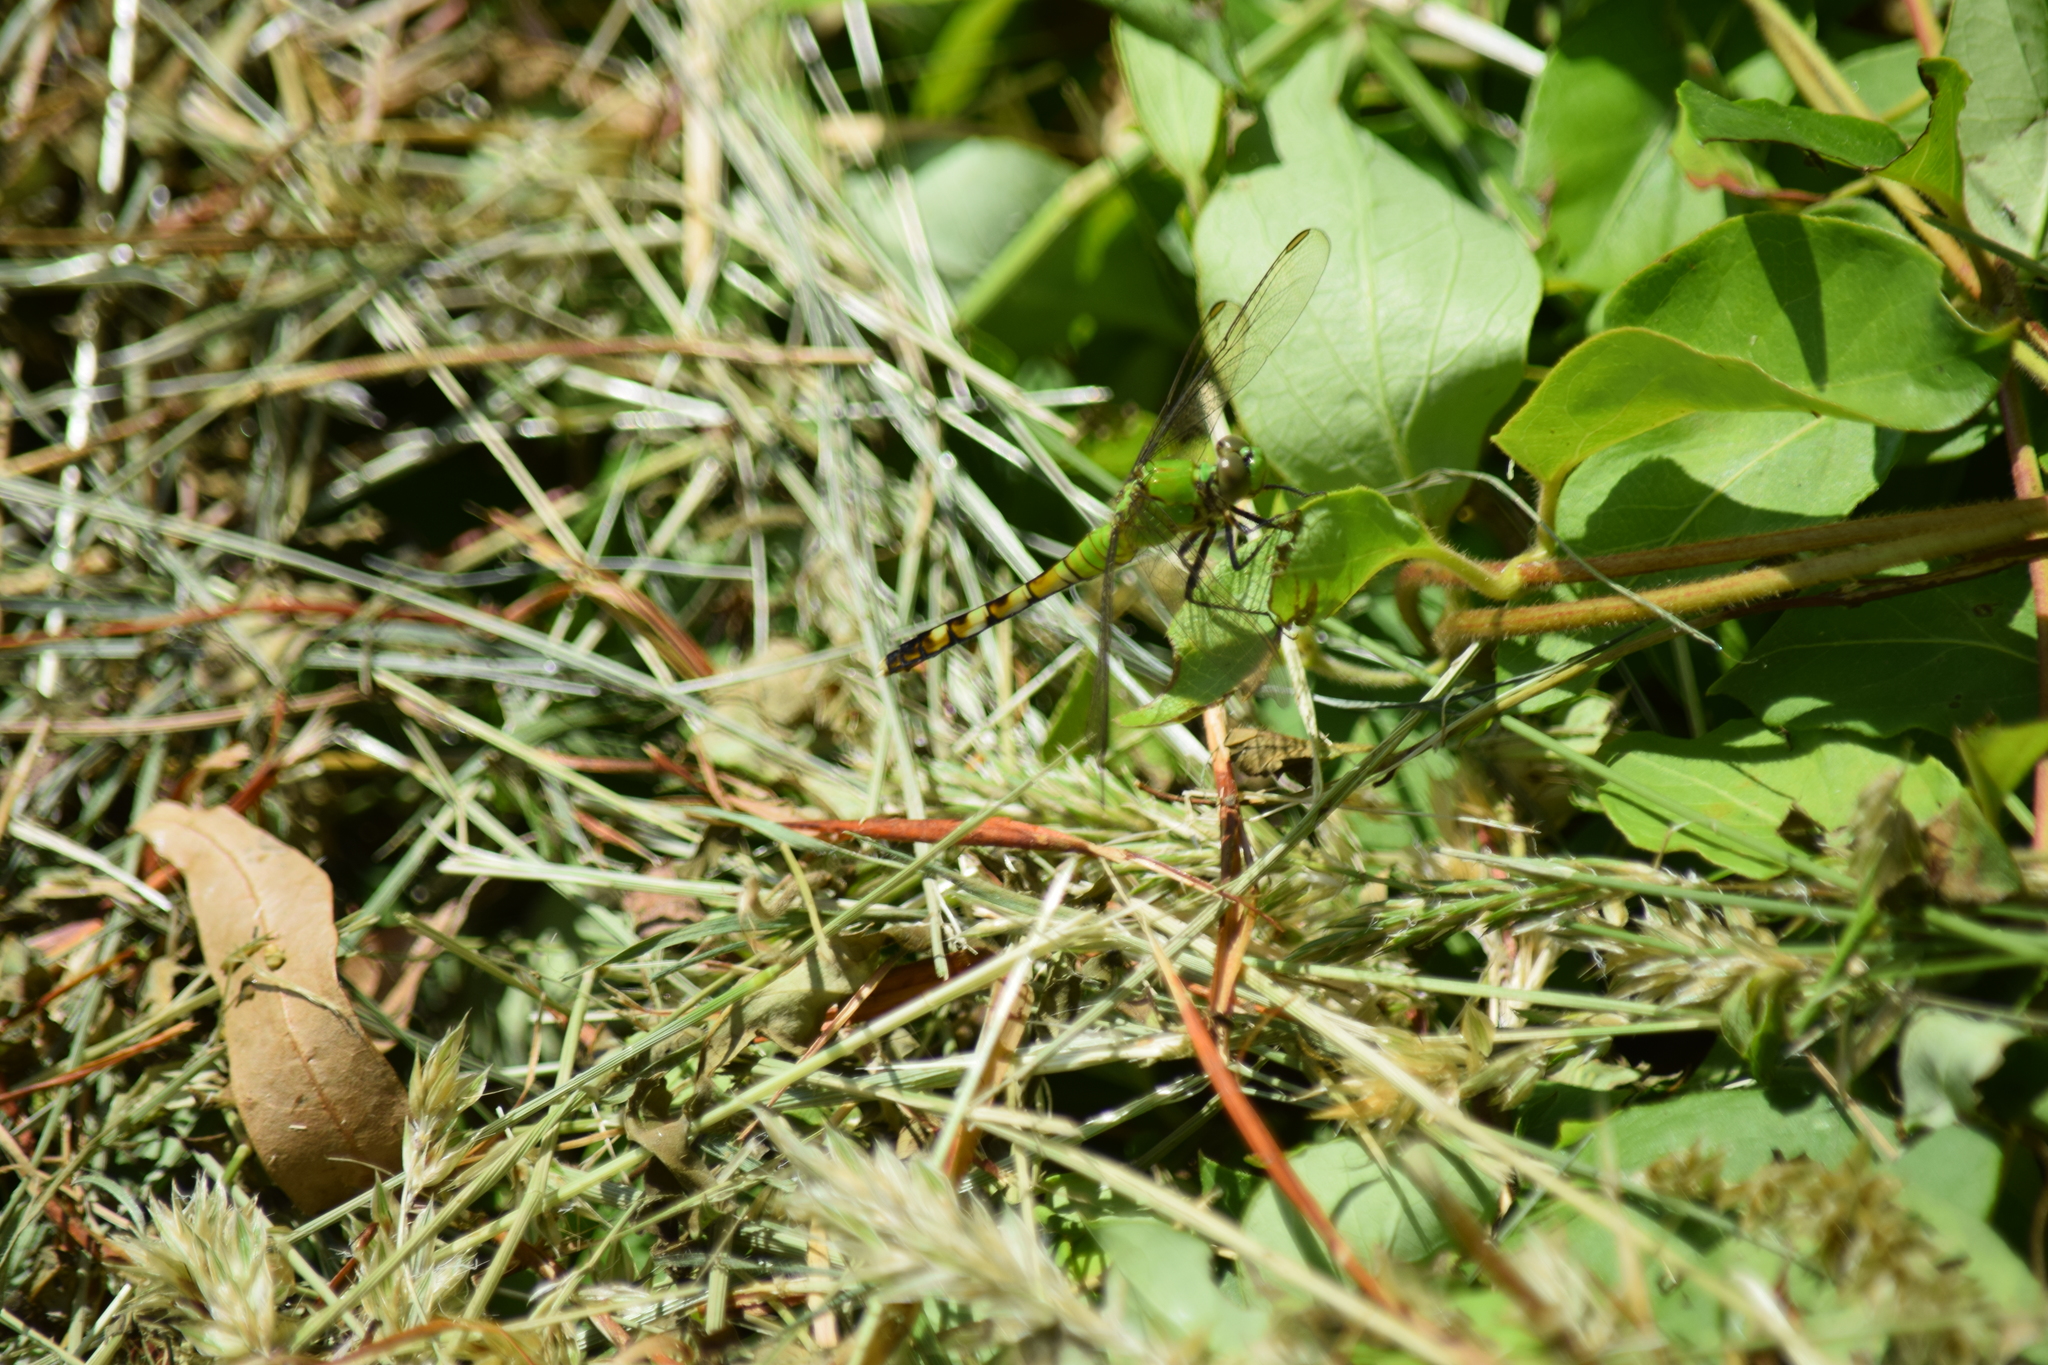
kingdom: Animalia
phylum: Arthropoda
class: Insecta
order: Odonata
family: Libellulidae
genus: Erythemis
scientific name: Erythemis simplicicollis
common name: Eastern pondhawk
